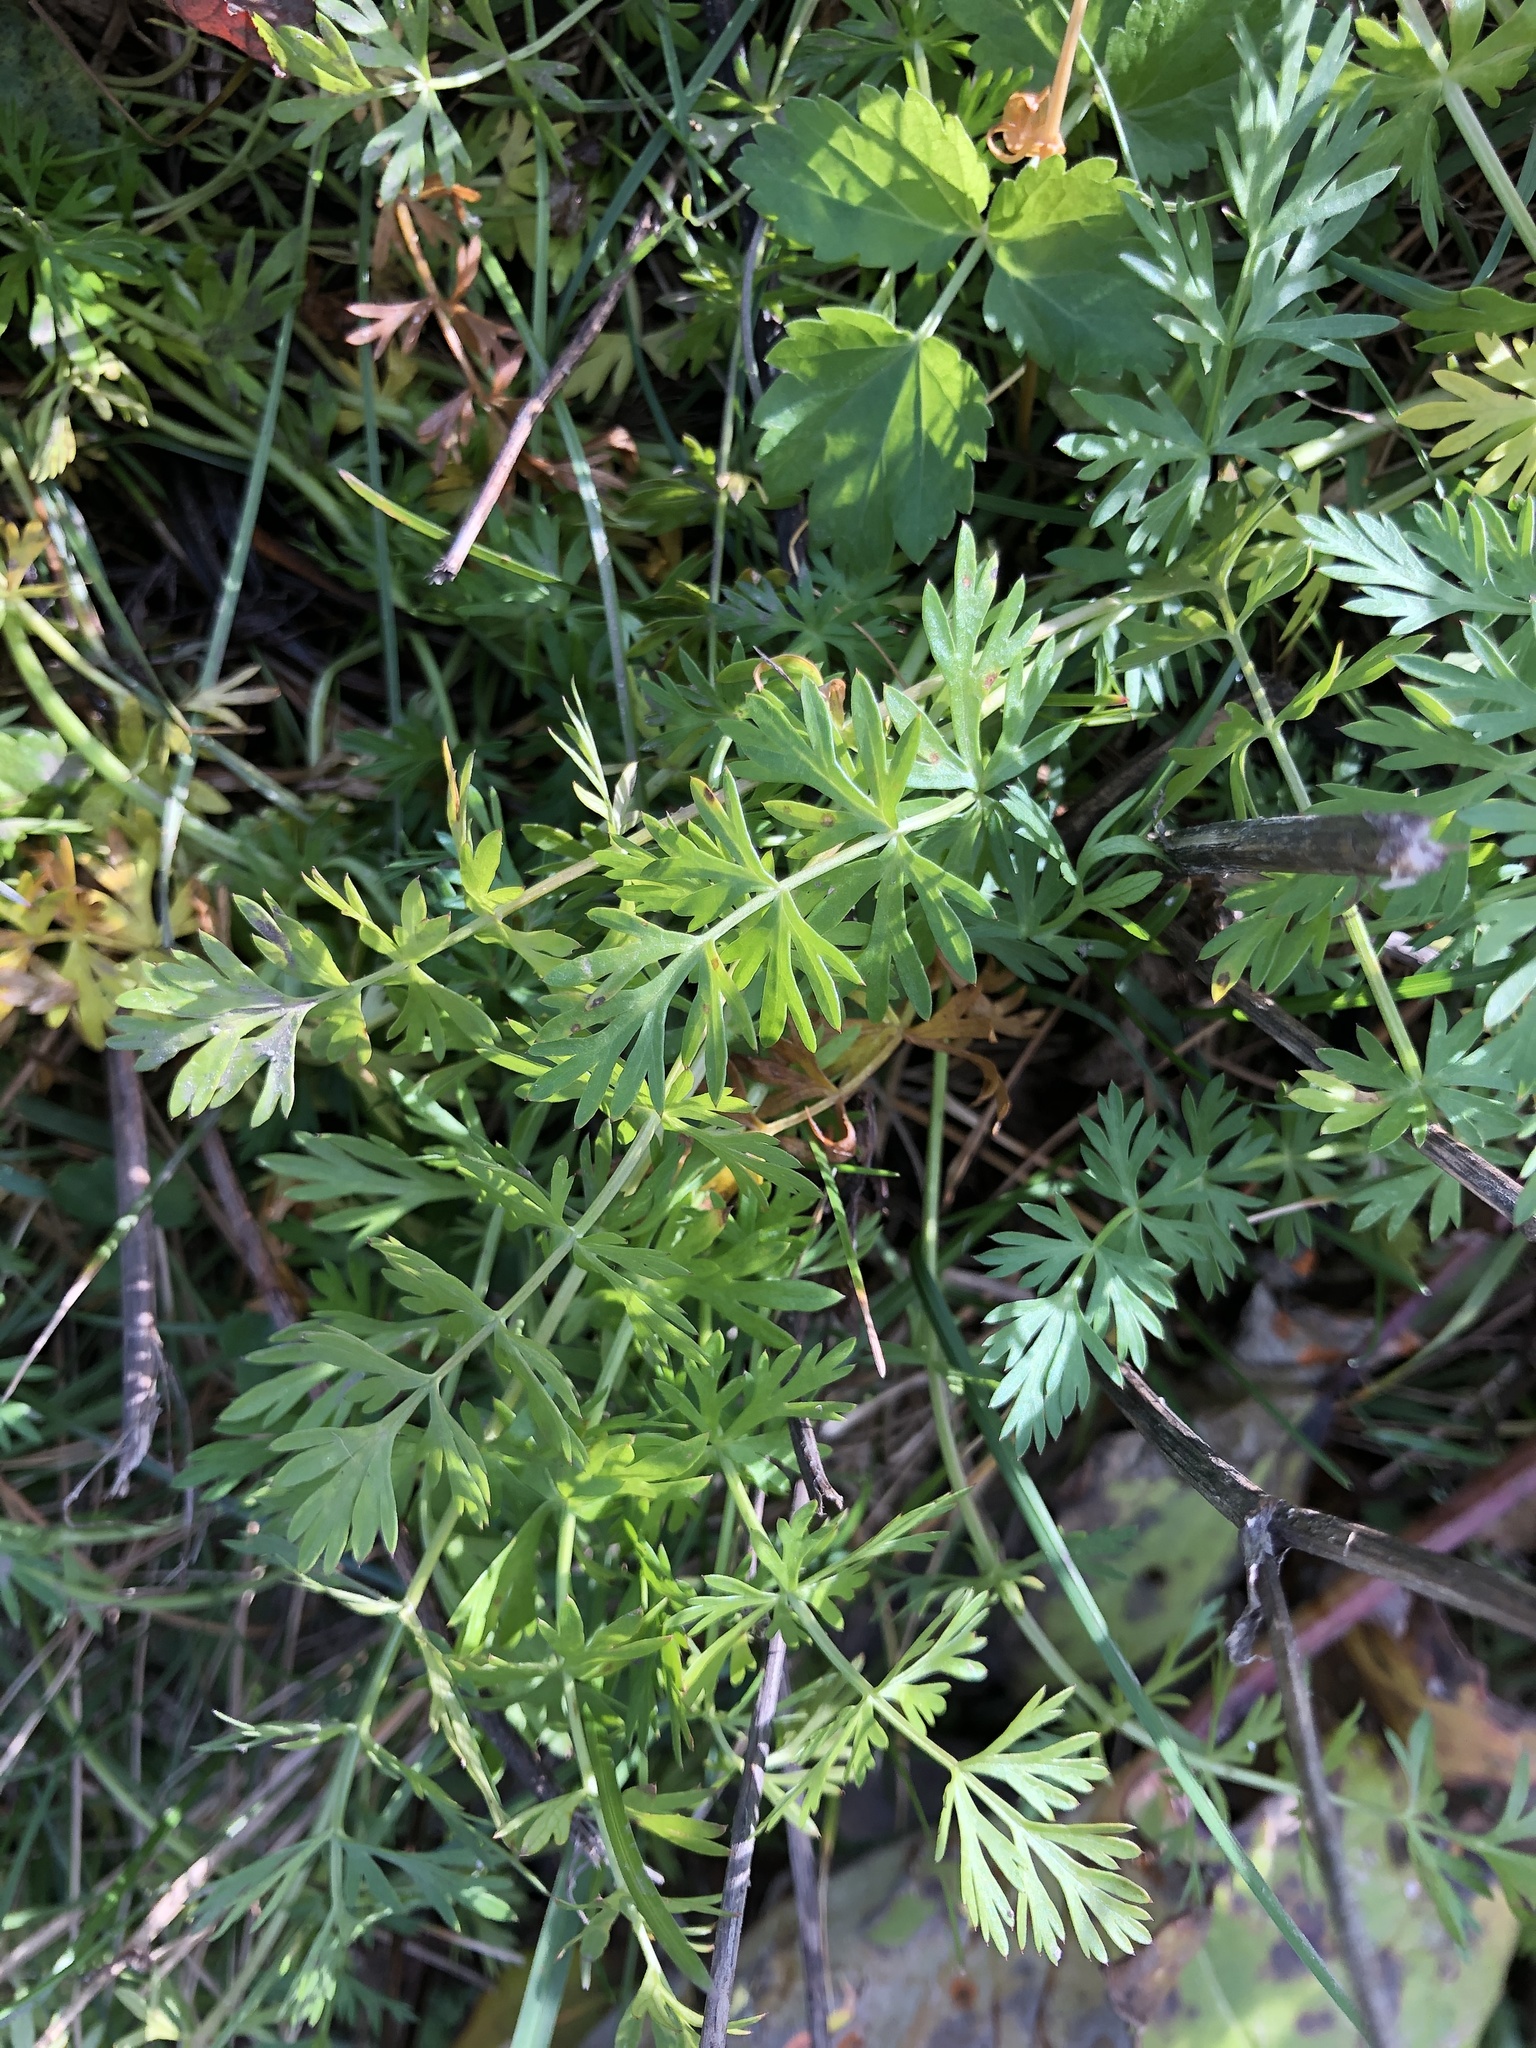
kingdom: Plantae
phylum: Tracheophyta
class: Magnoliopsida
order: Apiales
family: Apiaceae
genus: Carum
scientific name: Carum carvi
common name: Caraway
